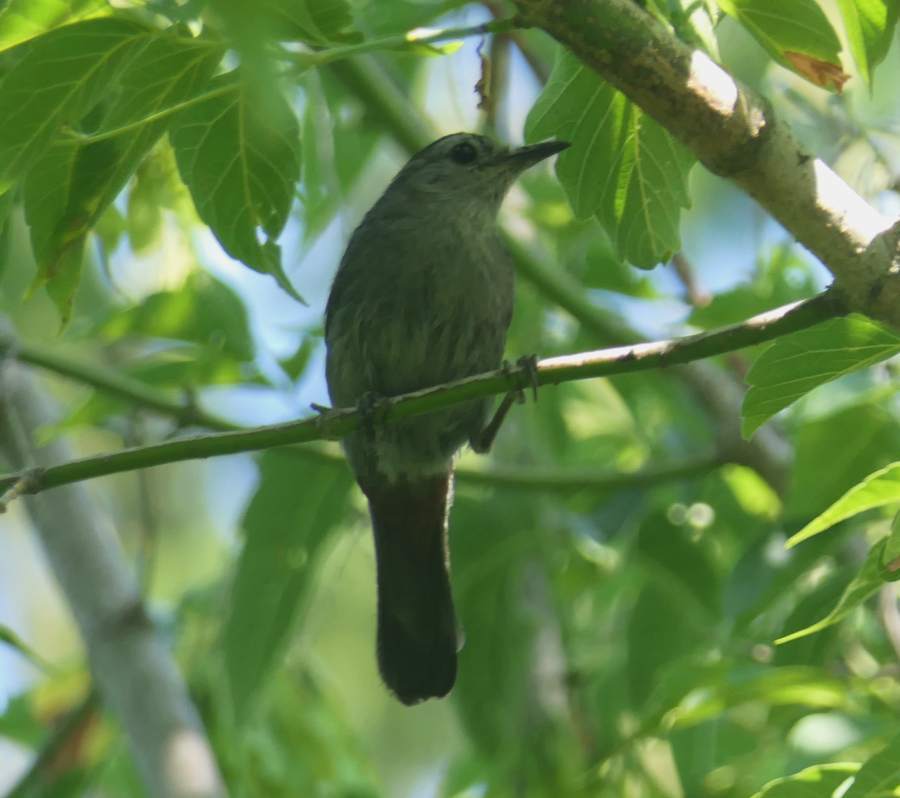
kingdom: Animalia
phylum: Chordata
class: Aves
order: Passeriformes
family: Mimidae
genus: Dumetella
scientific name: Dumetella carolinensis
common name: Gray catbird
